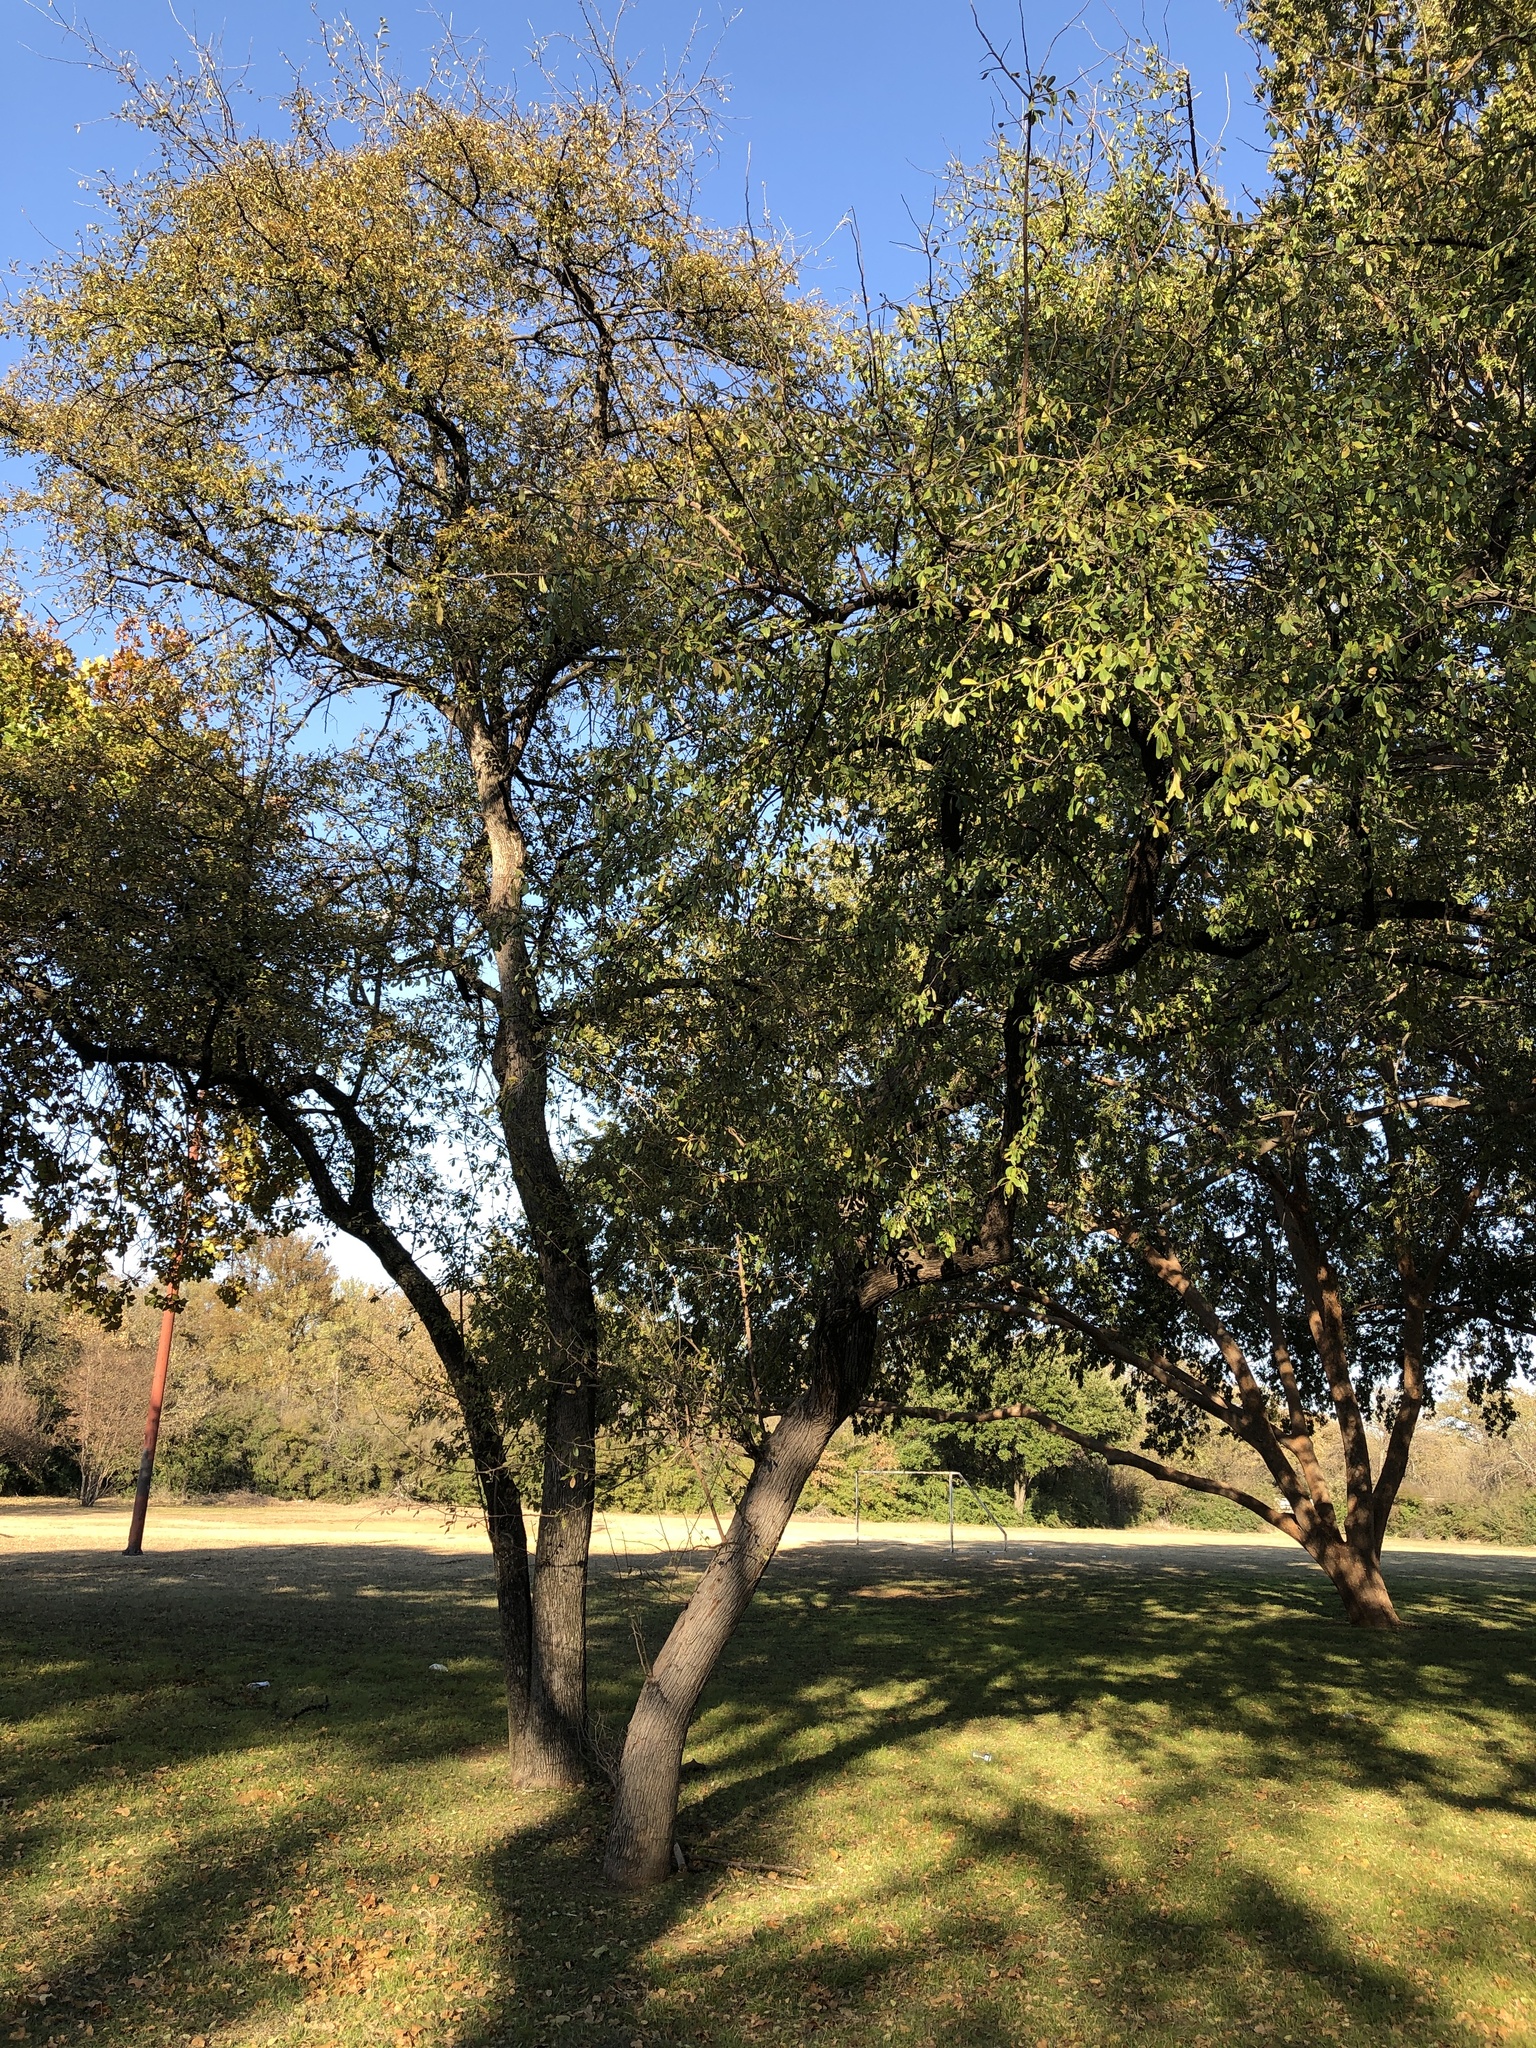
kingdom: Plantae
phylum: Tracheophyta
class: Magnoliopsida
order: Ericales
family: Sapotaceae
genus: Sideroxylon
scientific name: Sideroxylon lanuginosum
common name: Chittamwood
